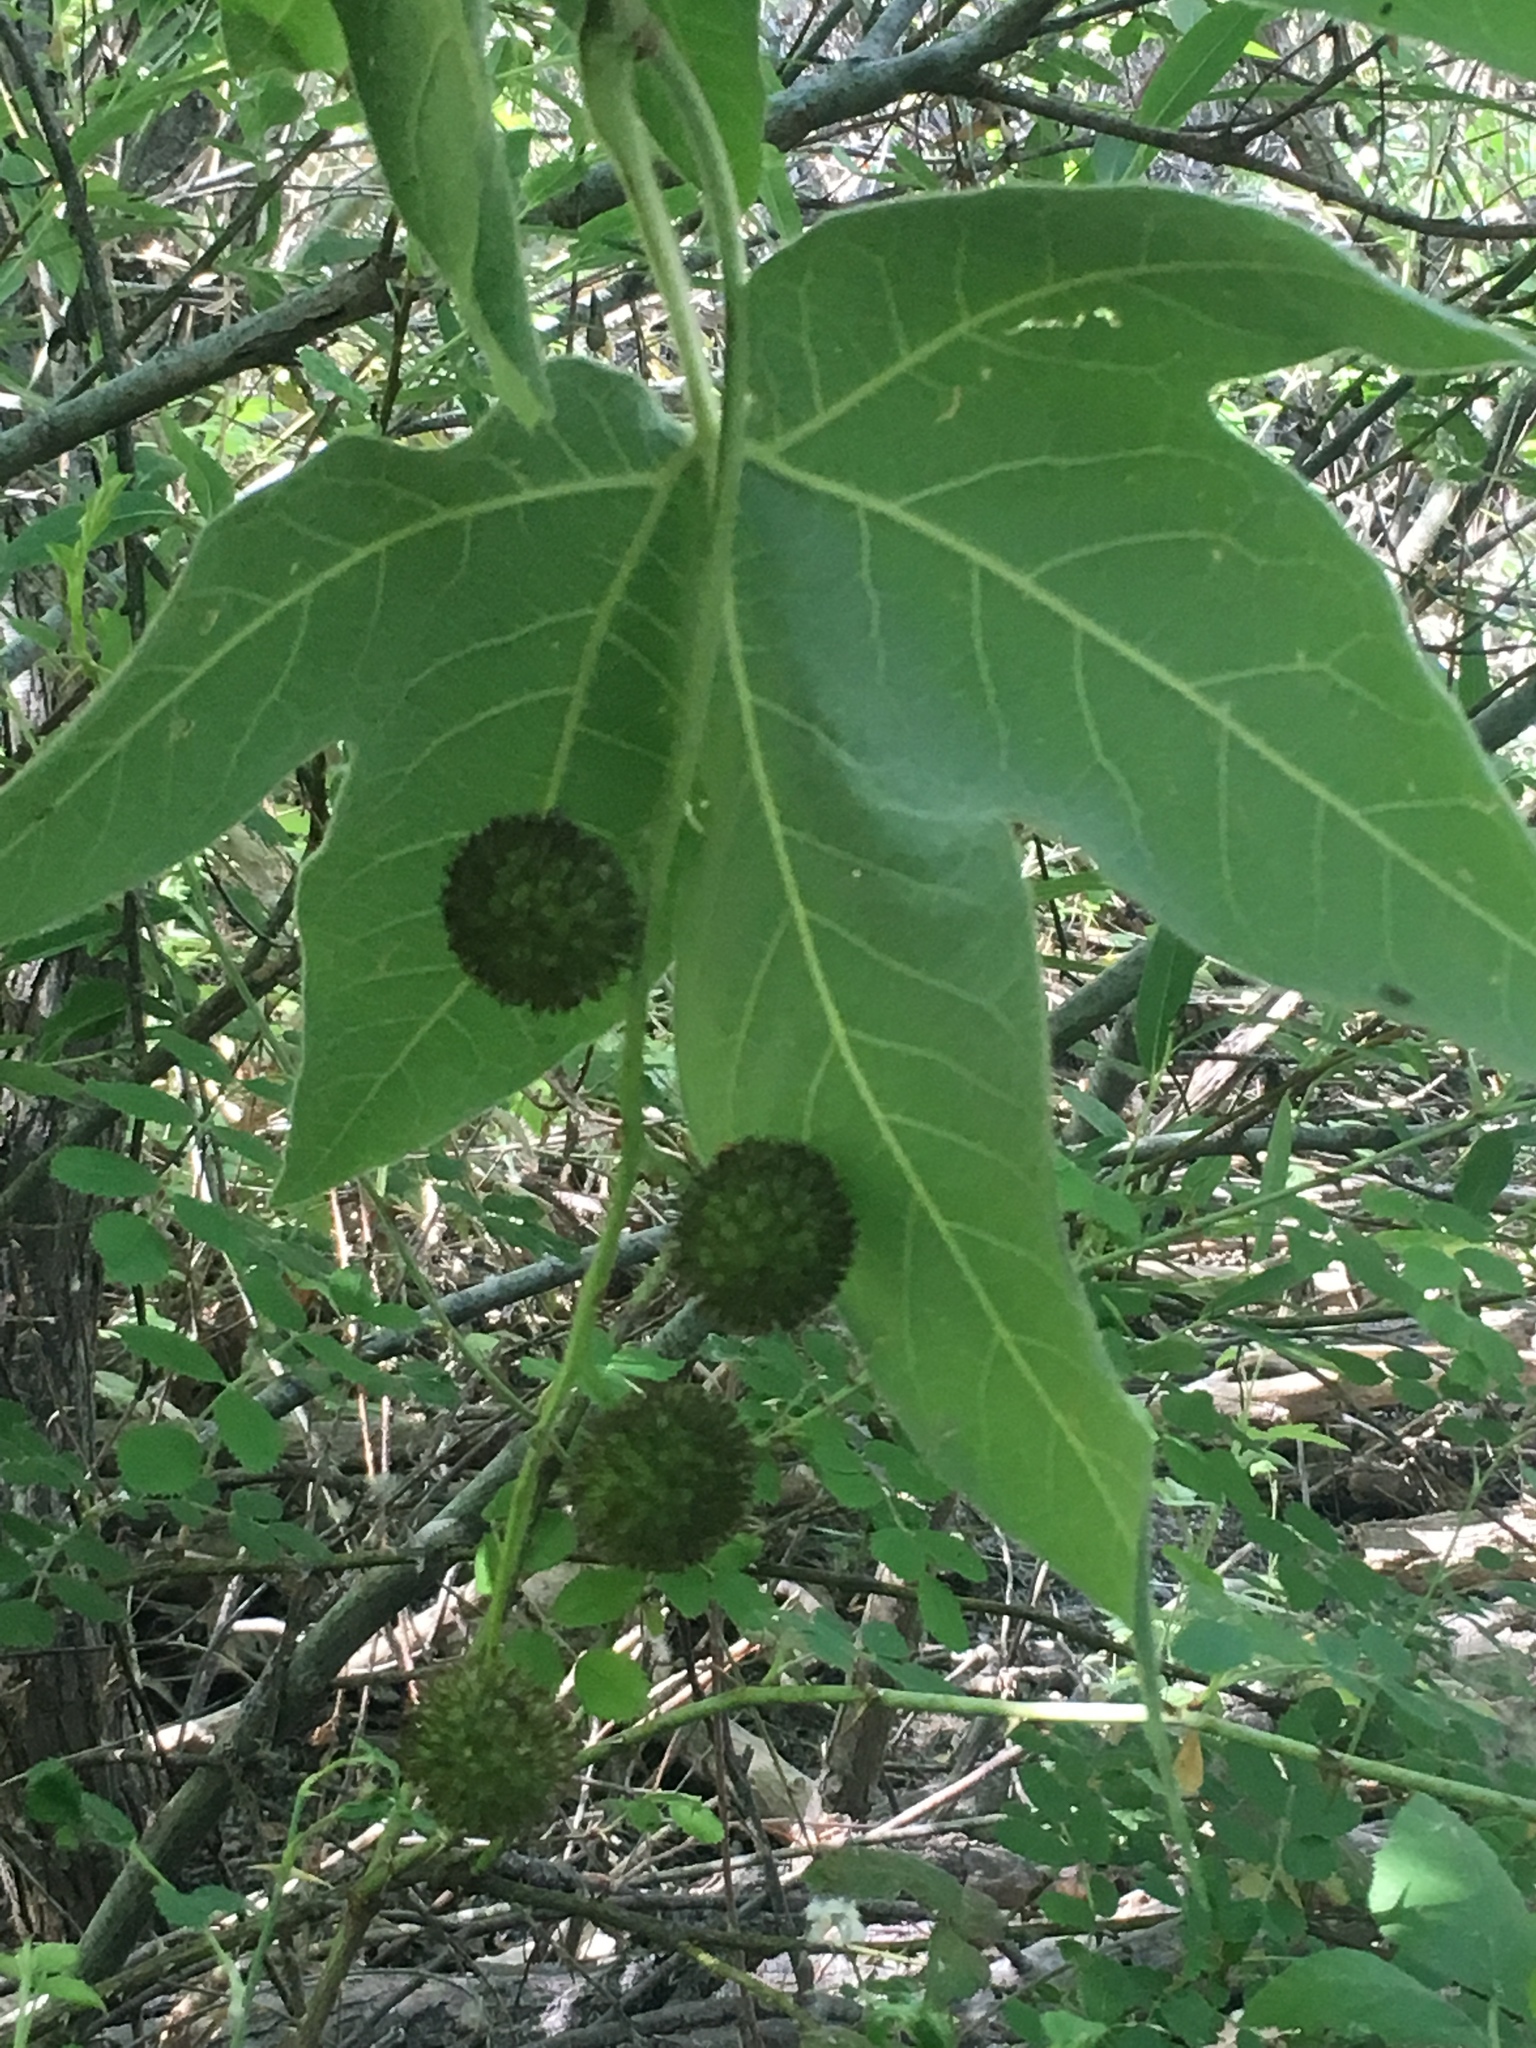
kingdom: Plantae
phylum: Tracheophyta
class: Magnoliopsida
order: Proteales
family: Platanaceae
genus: Platanus
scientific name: Platanus racemosa
